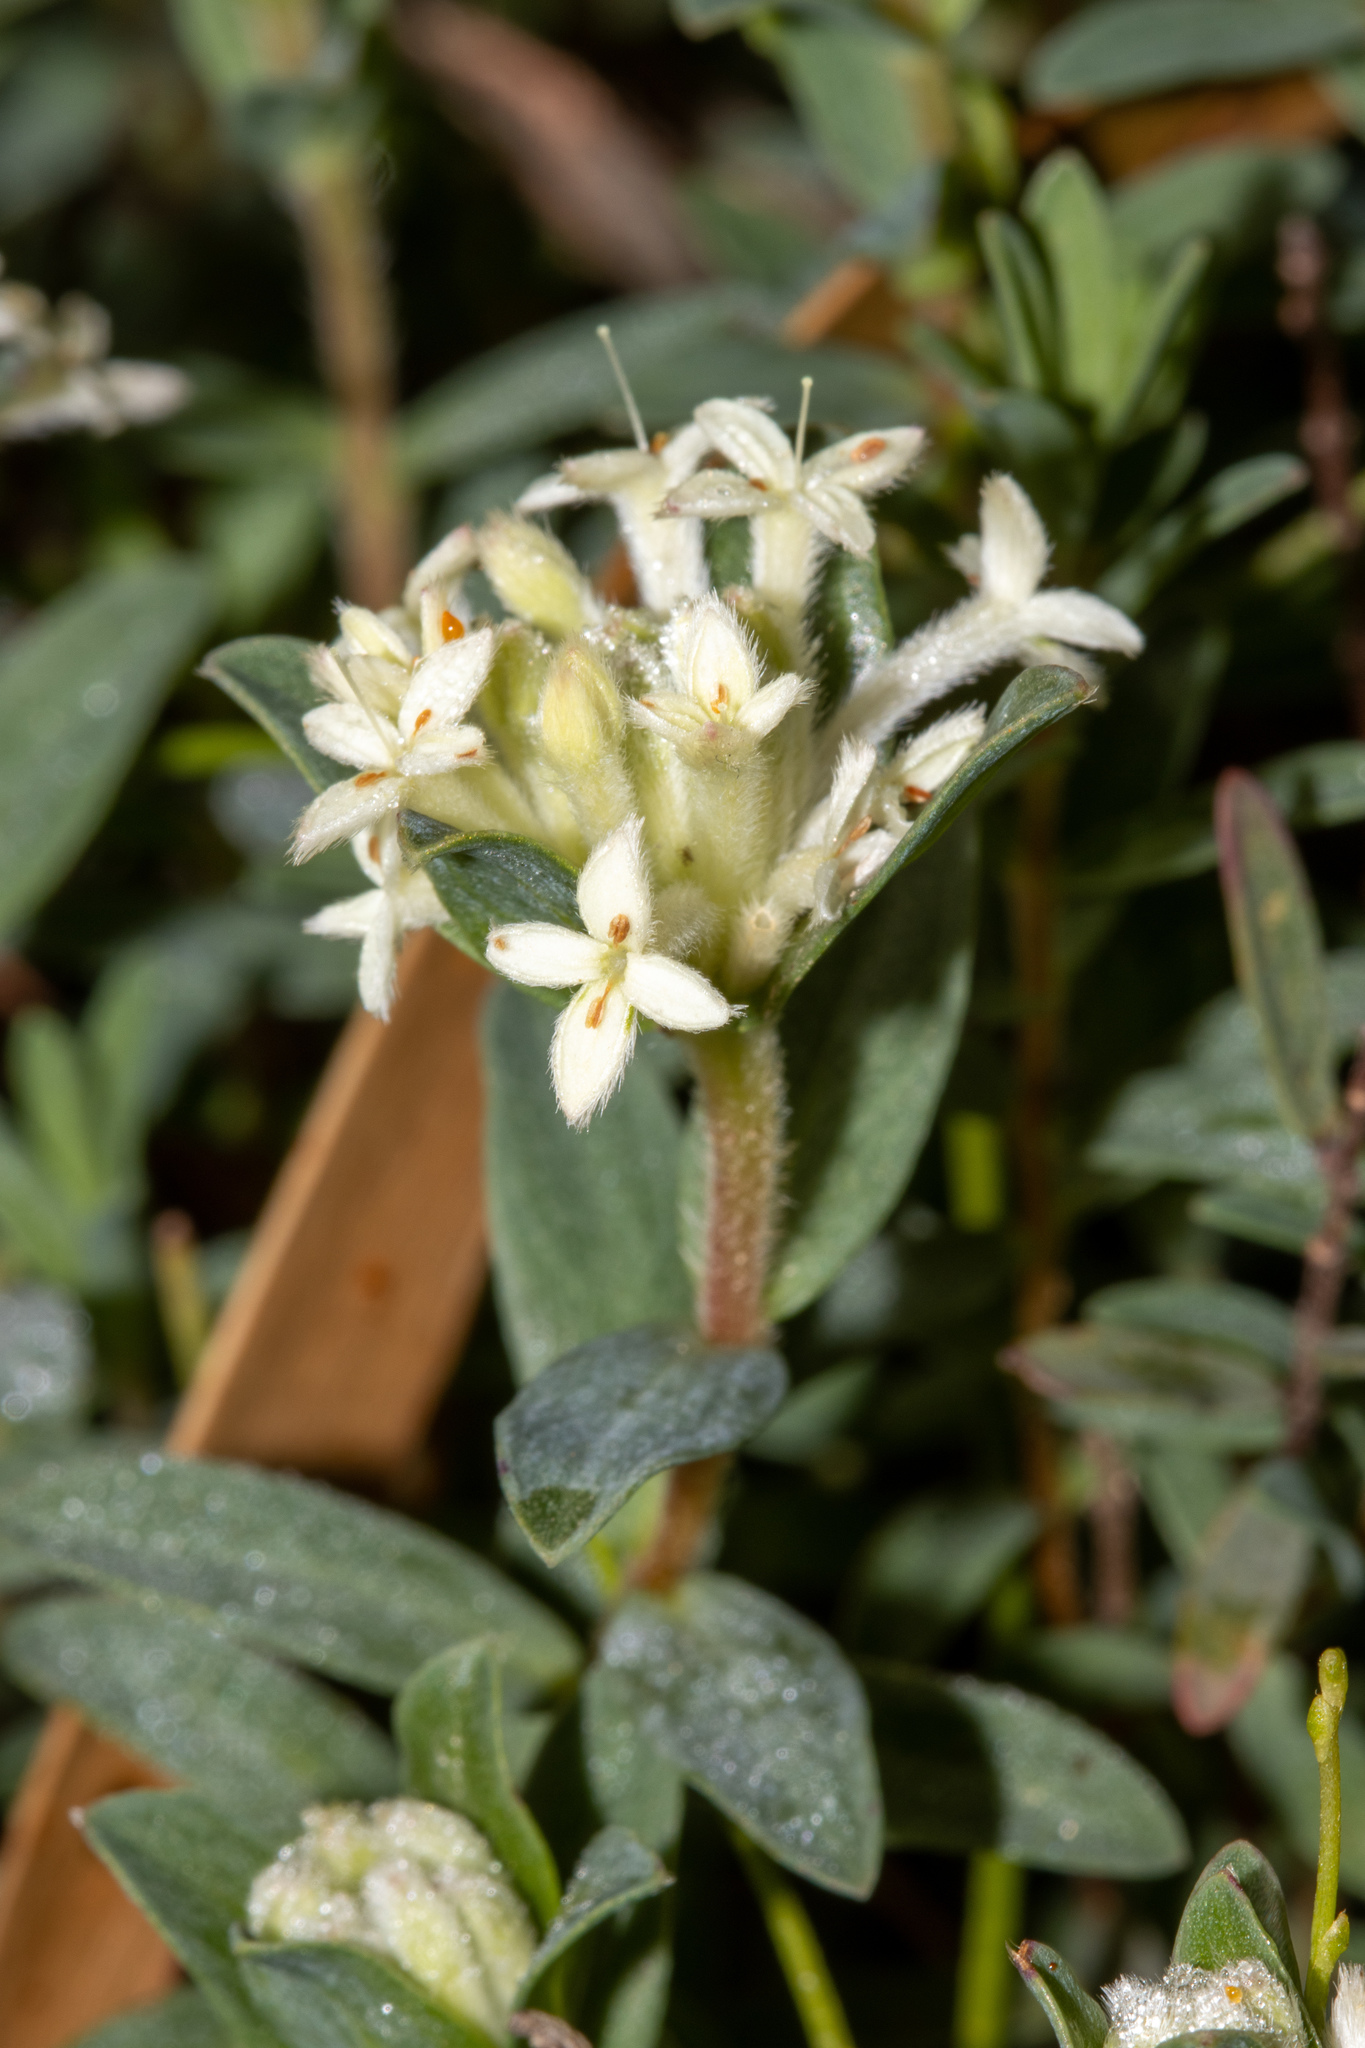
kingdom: Plantae
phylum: Tracheophyta
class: Magnoliopsida
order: Malvales
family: Thymelaeaceae
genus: Pimelea
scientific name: Pimelea humilis
